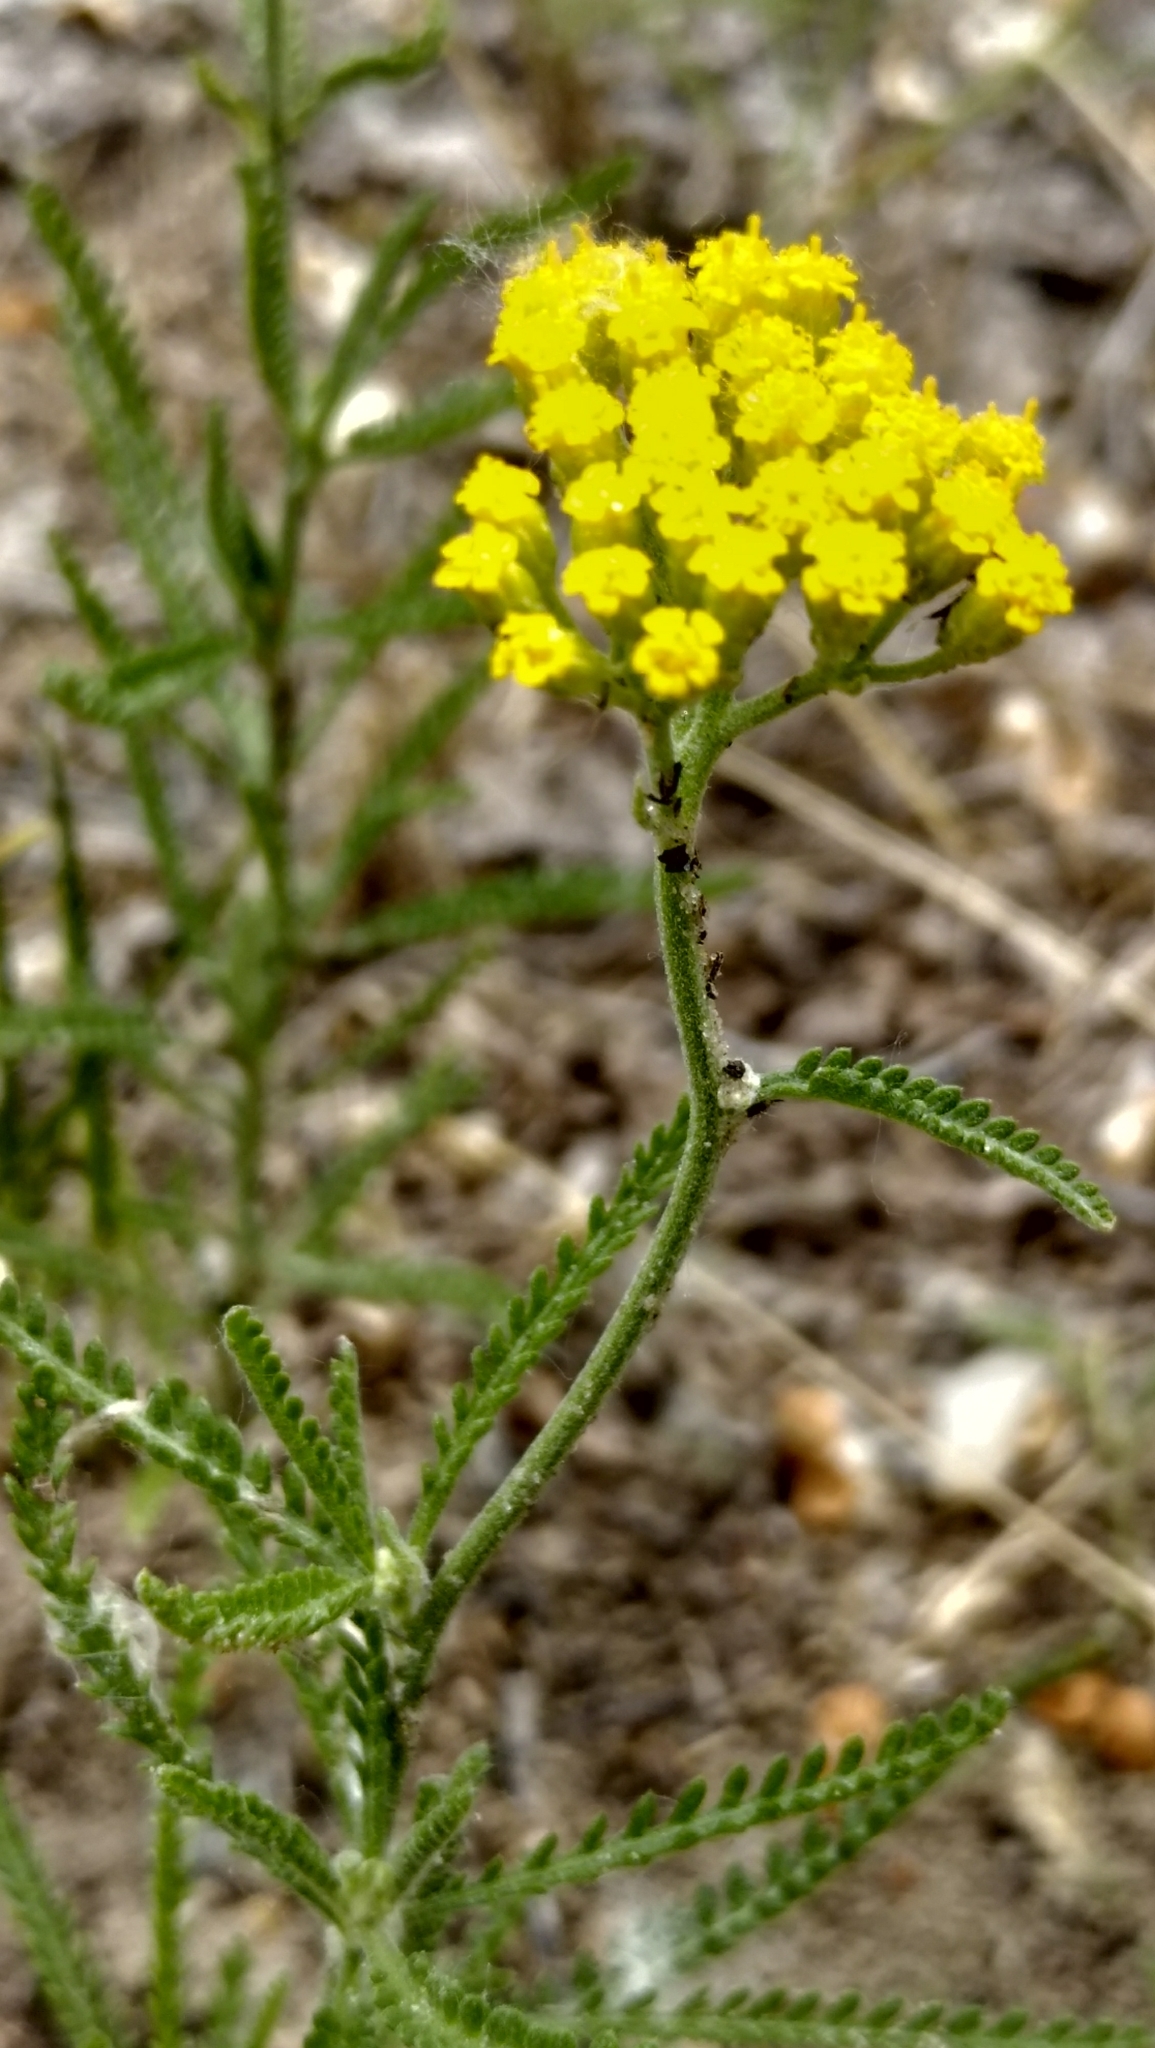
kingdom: Plantae
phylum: Tracheophyta
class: Magnoliopsida
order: Asterales
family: Asteraceae
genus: Achillea
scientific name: Achillea micrantha
